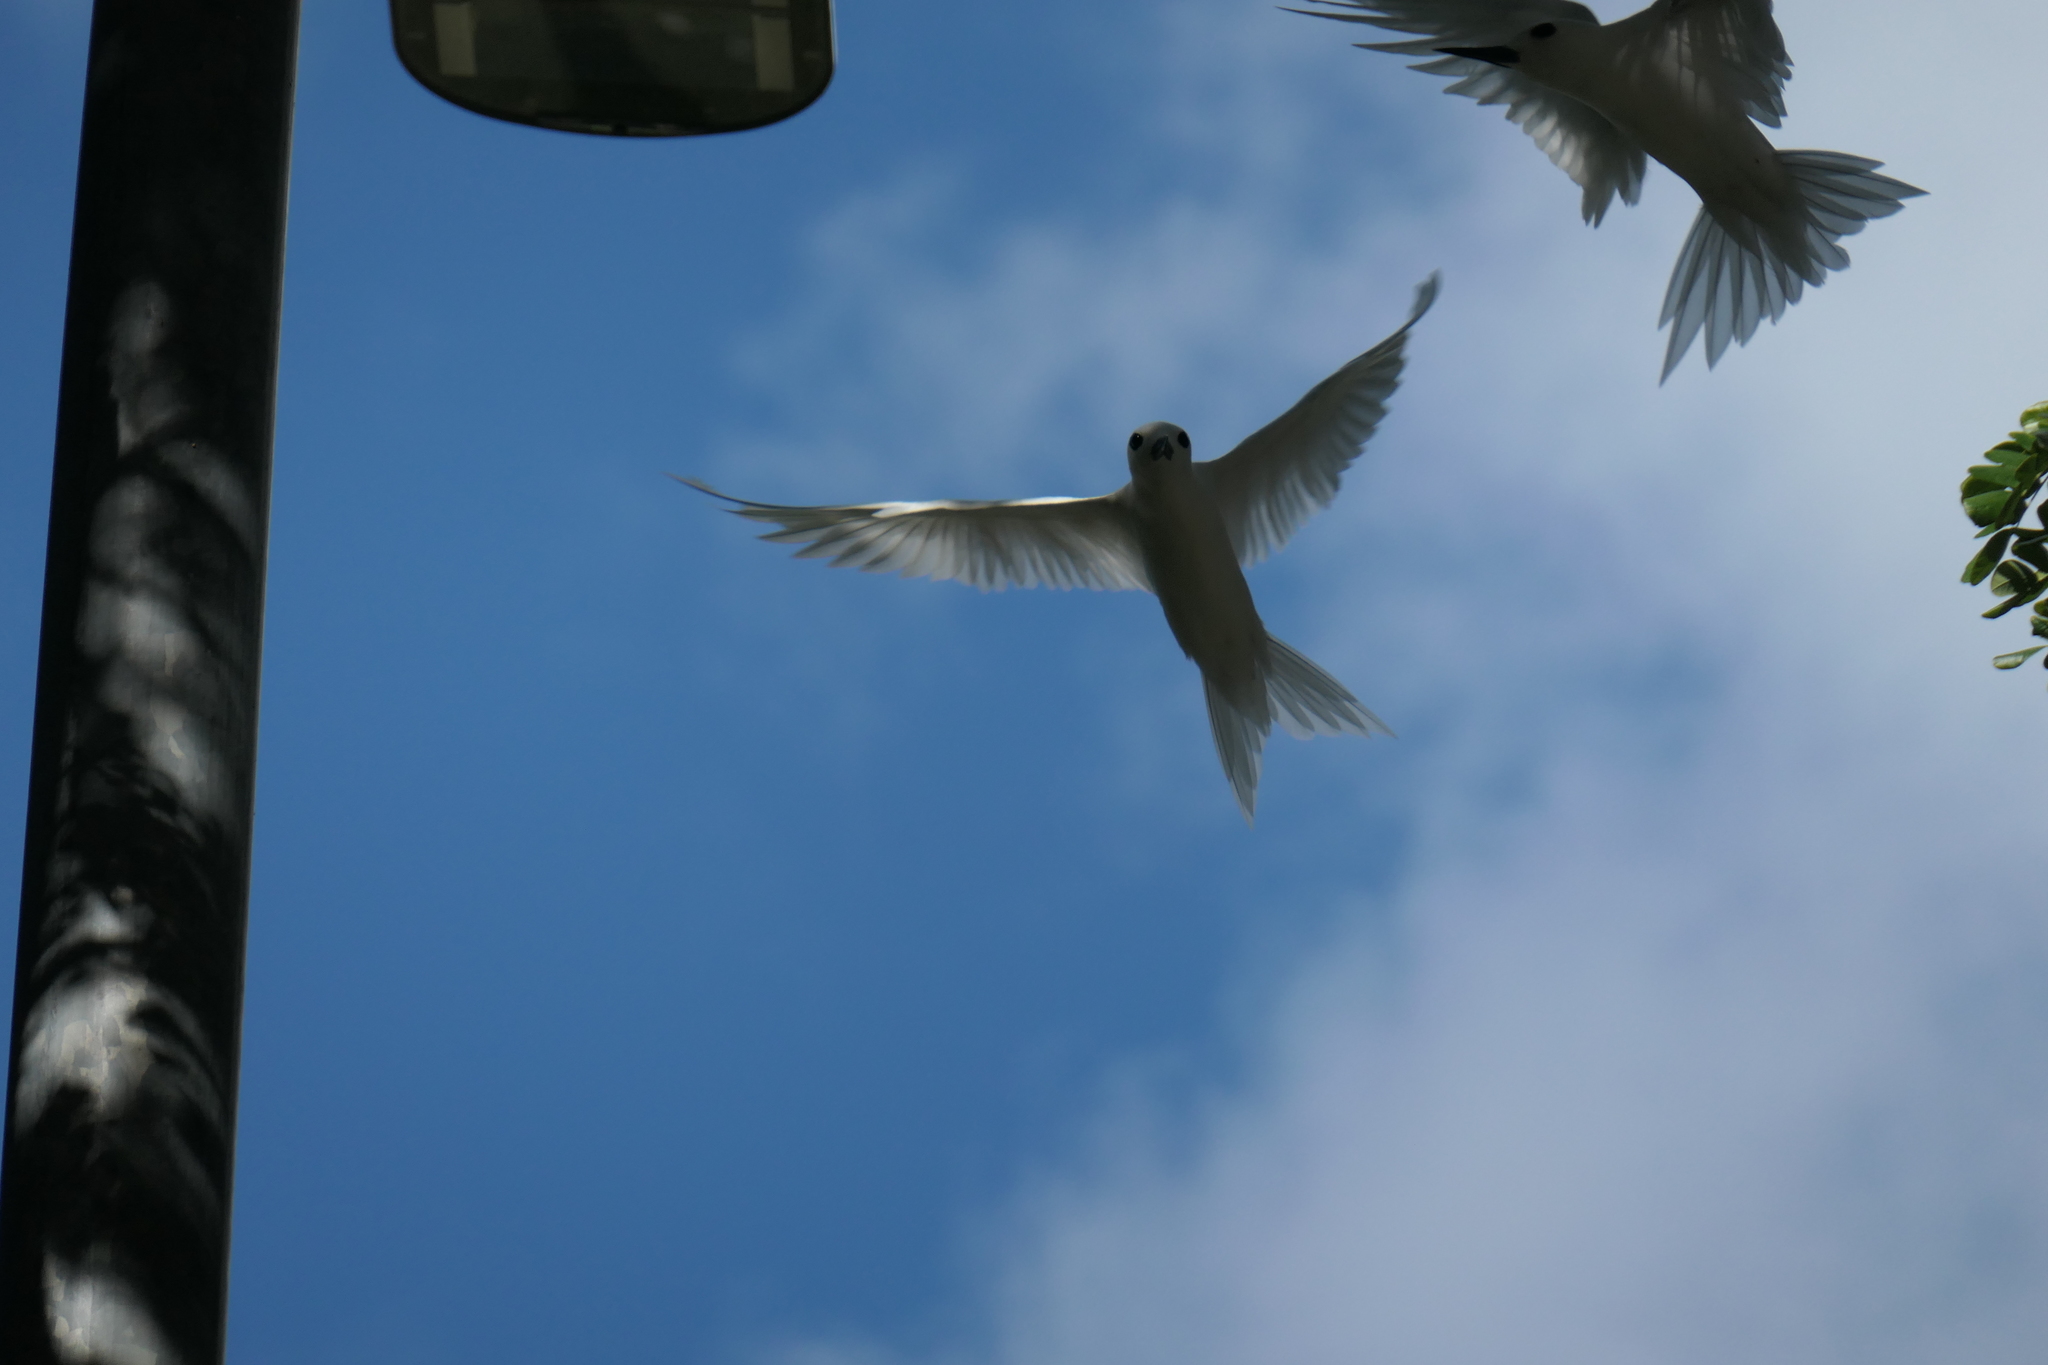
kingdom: Animalia
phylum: Chordata
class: Aves
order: Charadriiformes
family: Laridae
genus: Gygis
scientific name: Gygis alba
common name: White tern
